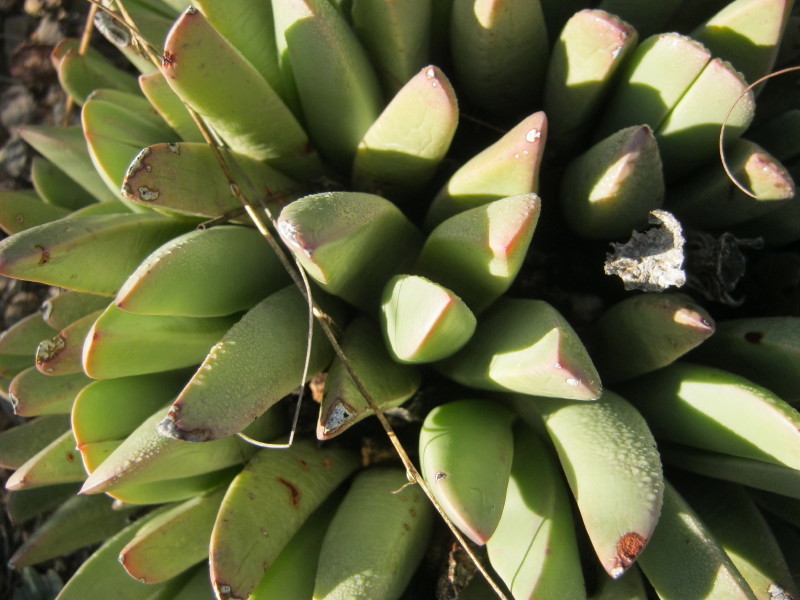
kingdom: Plantae
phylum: Tracheophyta
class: Magnoliopsida
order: Caryophyllales
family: Aizoaceae
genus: Machairophyllum
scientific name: Machairophyllum albidum
